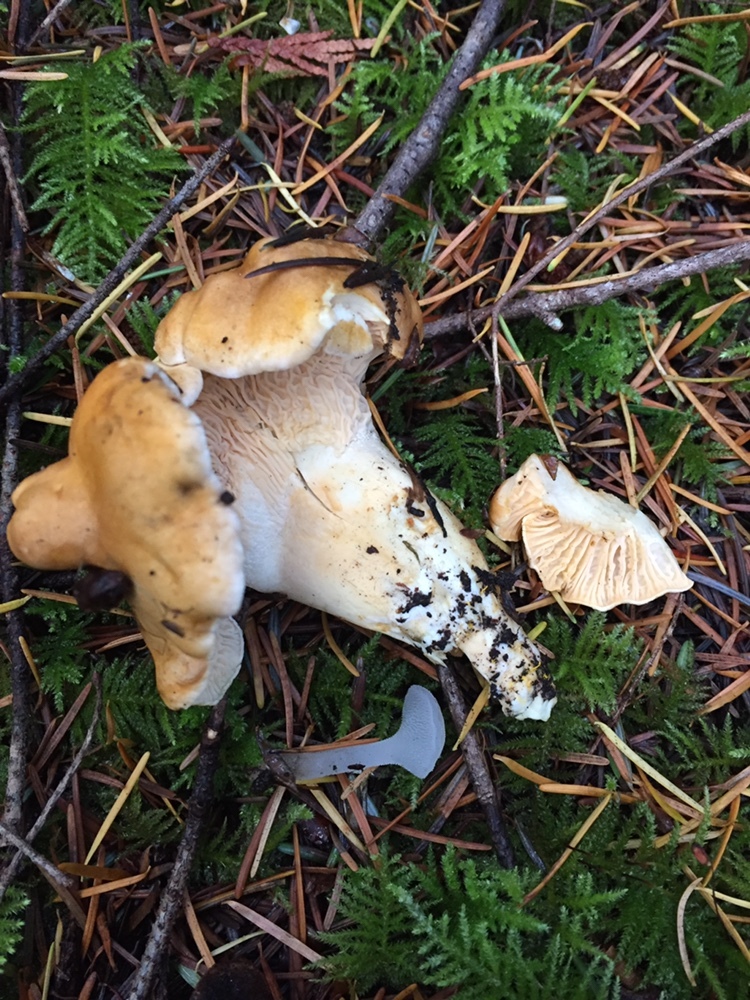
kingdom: Fungi
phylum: Basidiomycota
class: Agaricomycetes
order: Cantharellales
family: Hydnaceae
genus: Cantharellus
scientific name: Cantharellus formosus
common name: Pacific golden chanterelle
